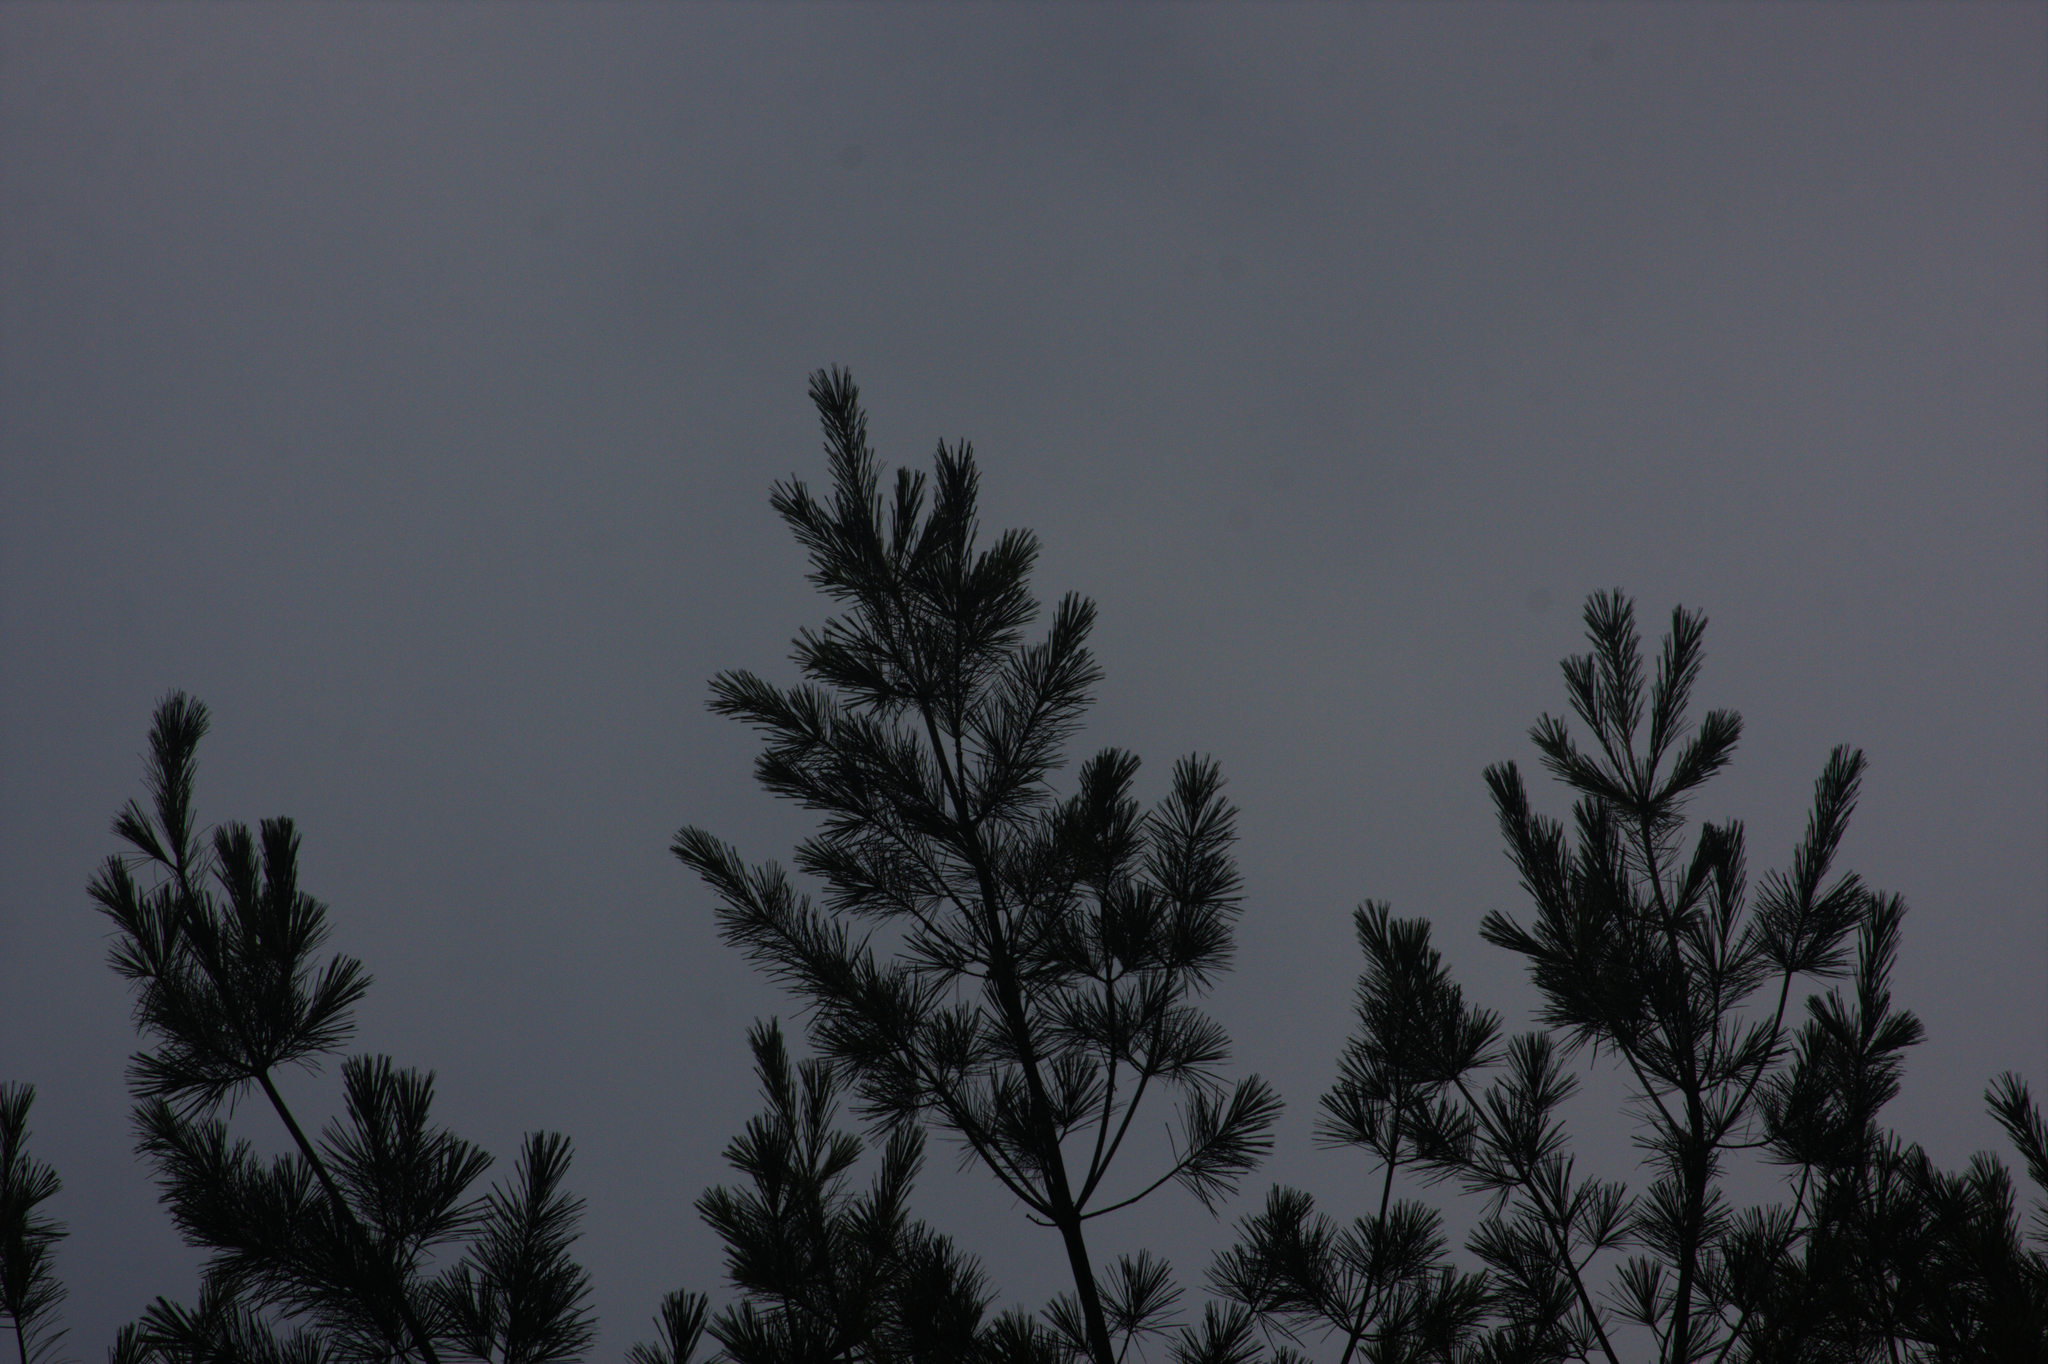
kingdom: Plantae
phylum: Tracheophyta
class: Pinopsida
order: Pinales
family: Pinaceae
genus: Pinus
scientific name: Pinus strobus
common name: Weymouth pine
